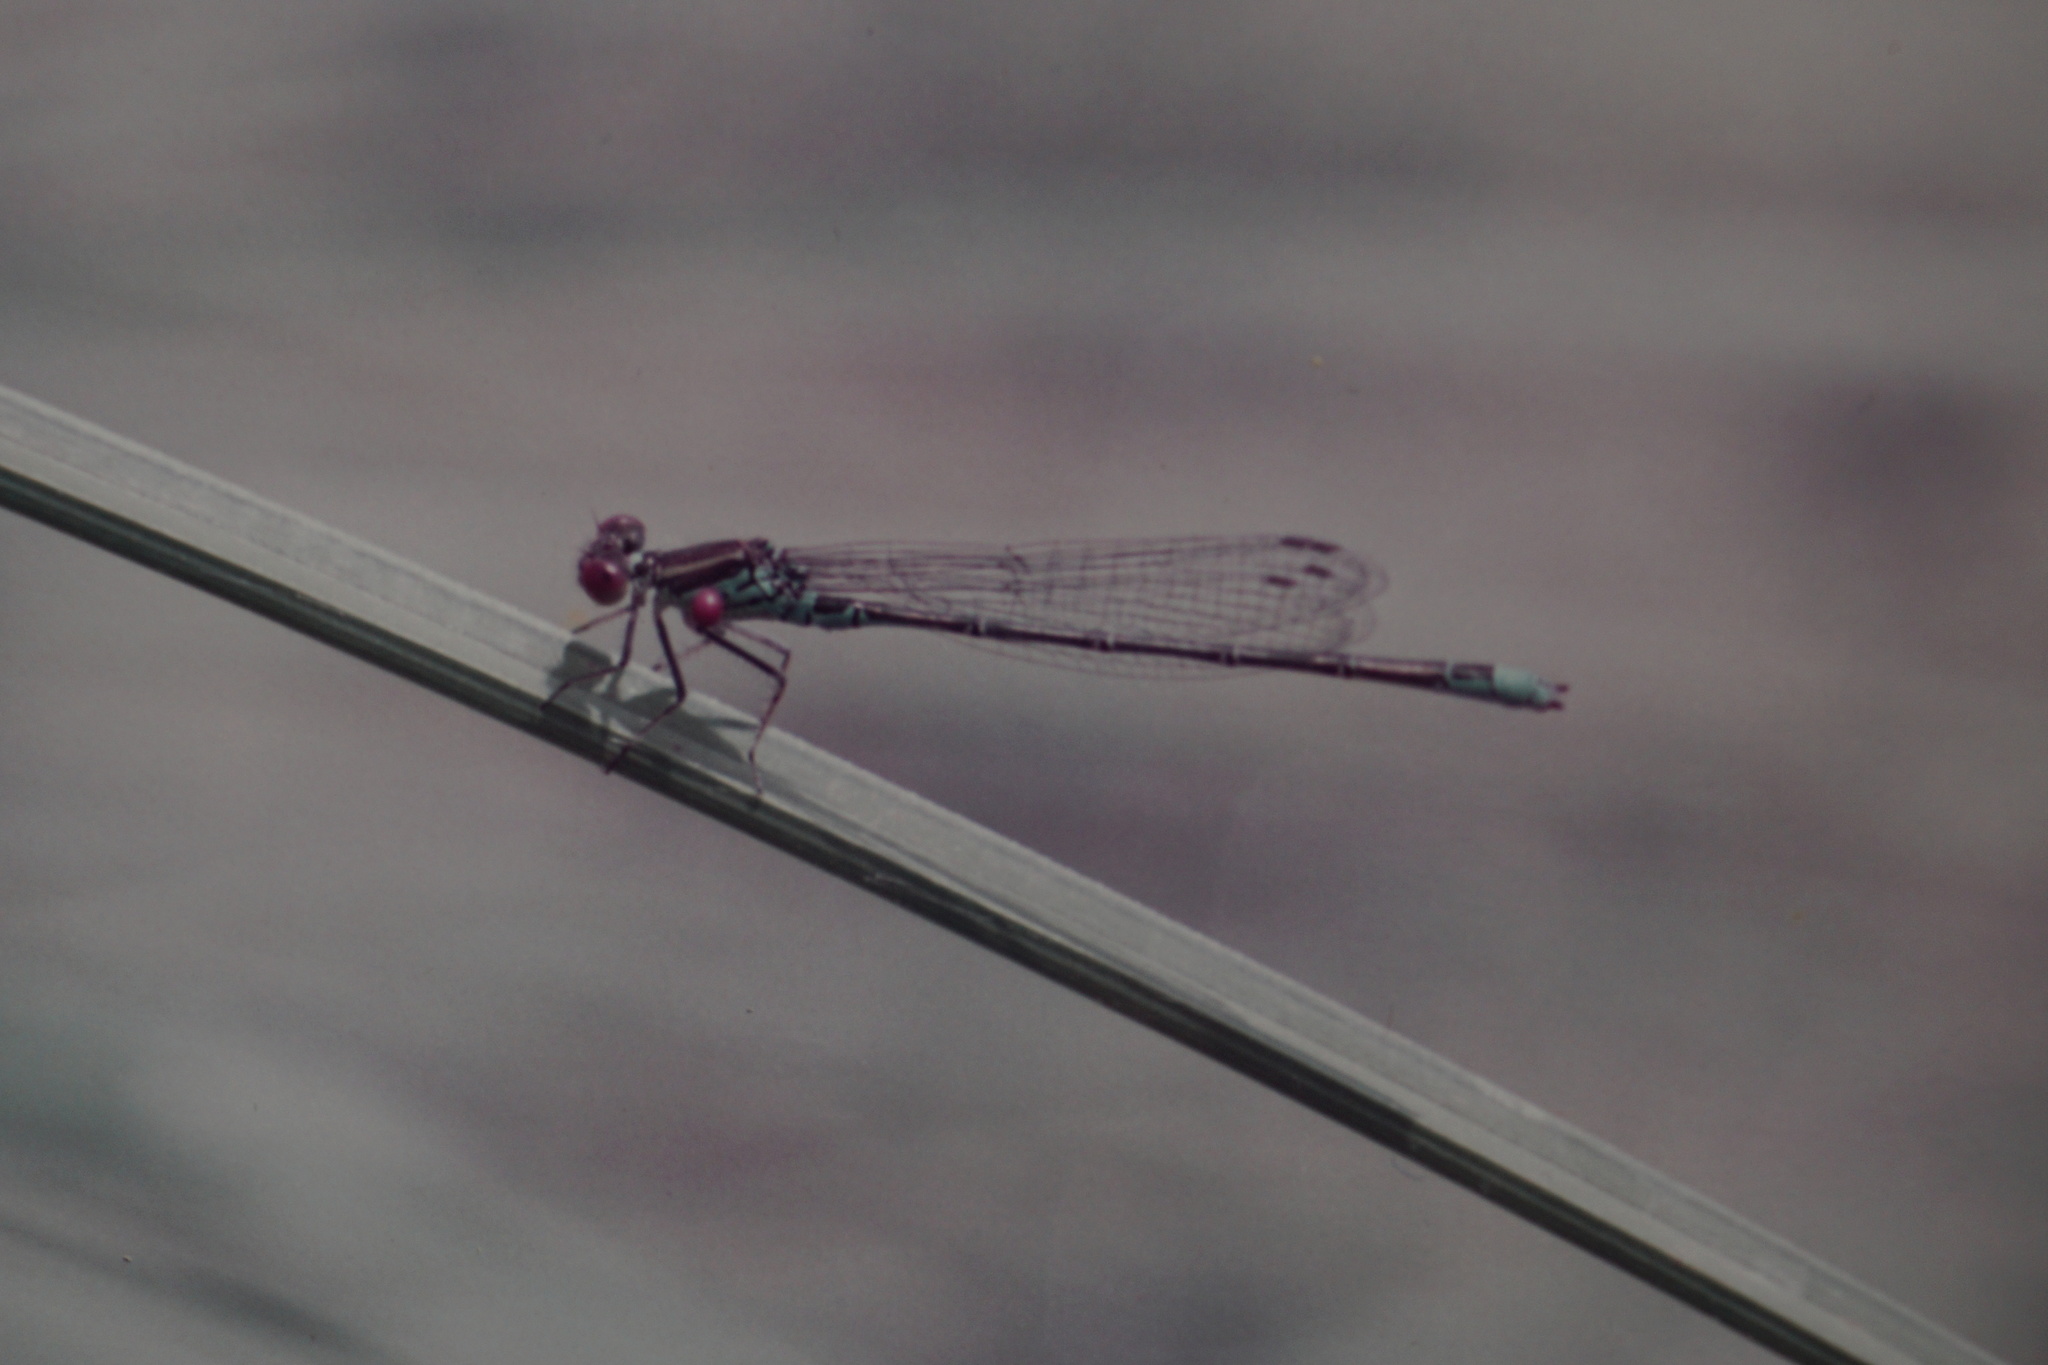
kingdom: Animalia
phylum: Arthropoda
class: Insecta
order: Odonata
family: Coenagrionidae
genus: Erythromma
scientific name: Erythromma viridulum
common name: Small red-eyed damselfly
